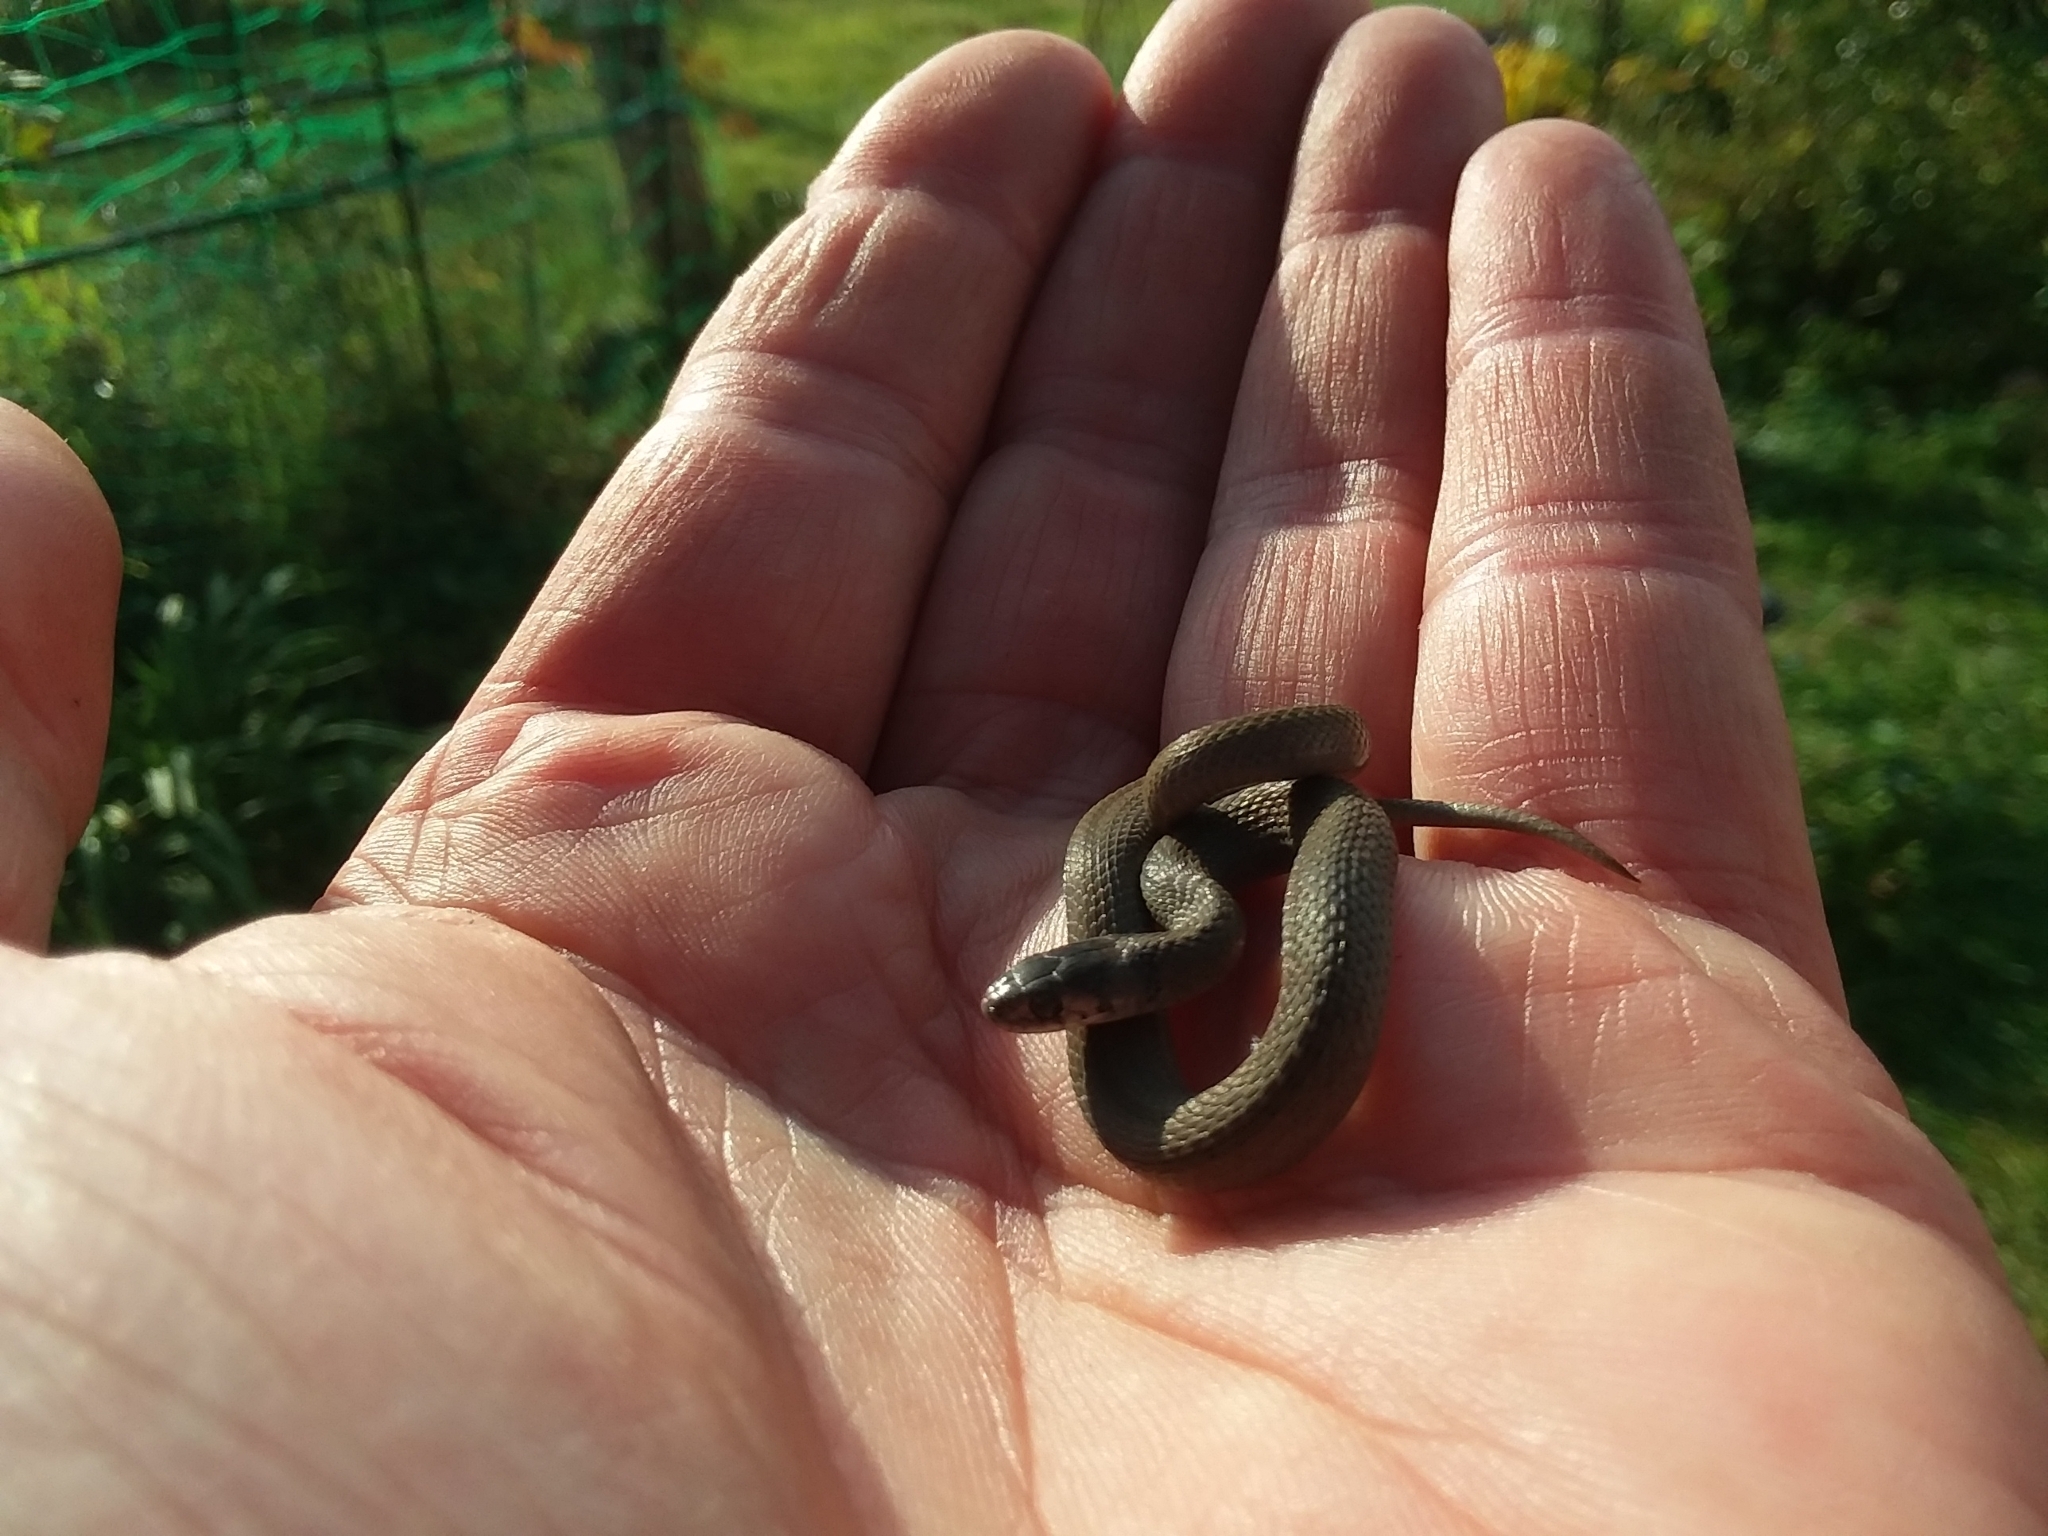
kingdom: Animalia
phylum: Chordata
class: Squamata
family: Colubridae
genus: Storeria
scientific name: Storeria dekayi
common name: (dekay’s) brown snake
